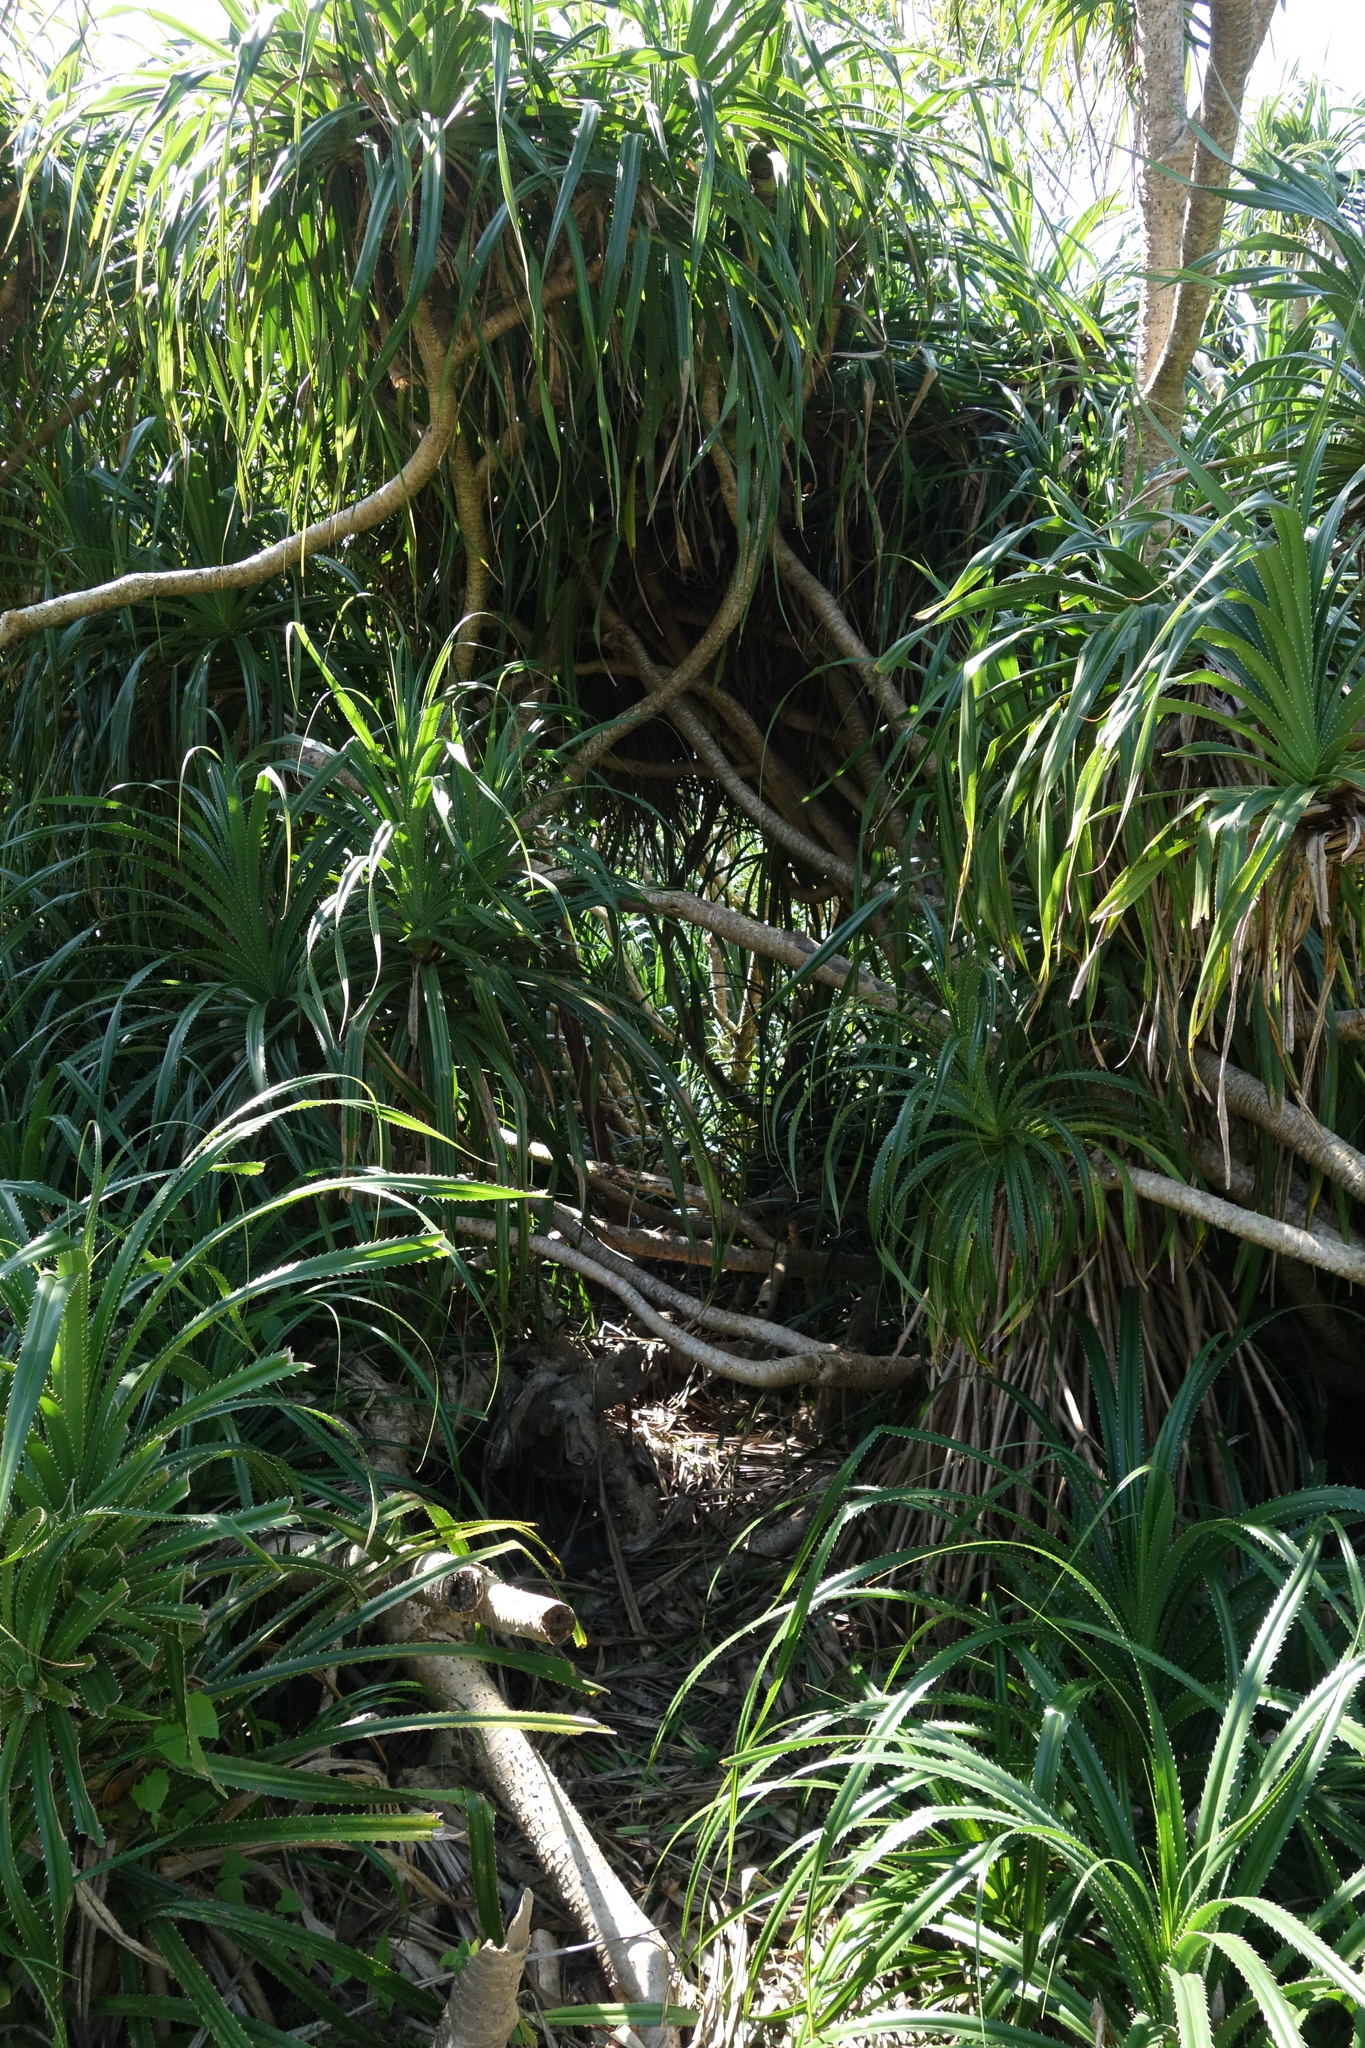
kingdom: Plantae
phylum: Tracheophyta
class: Liliopsida
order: Pandanales
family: Pandanaceae
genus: Pandanus
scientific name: Pandanus odorifer
